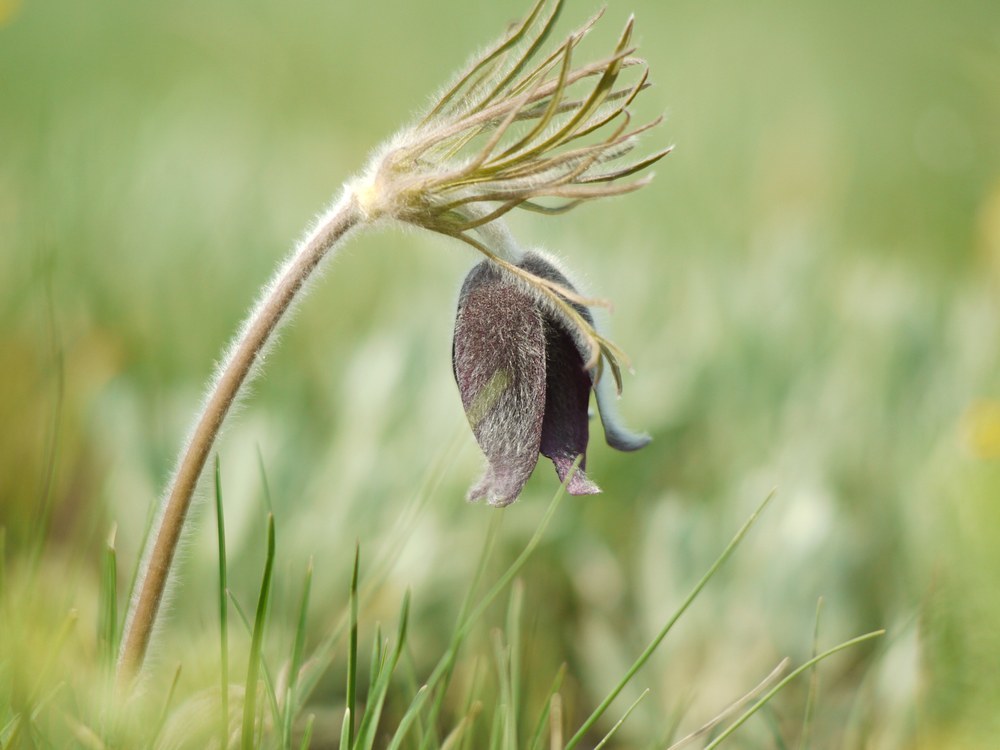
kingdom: Plantae
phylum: Tracheophyta
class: Magnoliopsida
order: Ranunculales
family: Ranunculaceae
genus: Pulsatilla
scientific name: Pulsatilla pratensis
